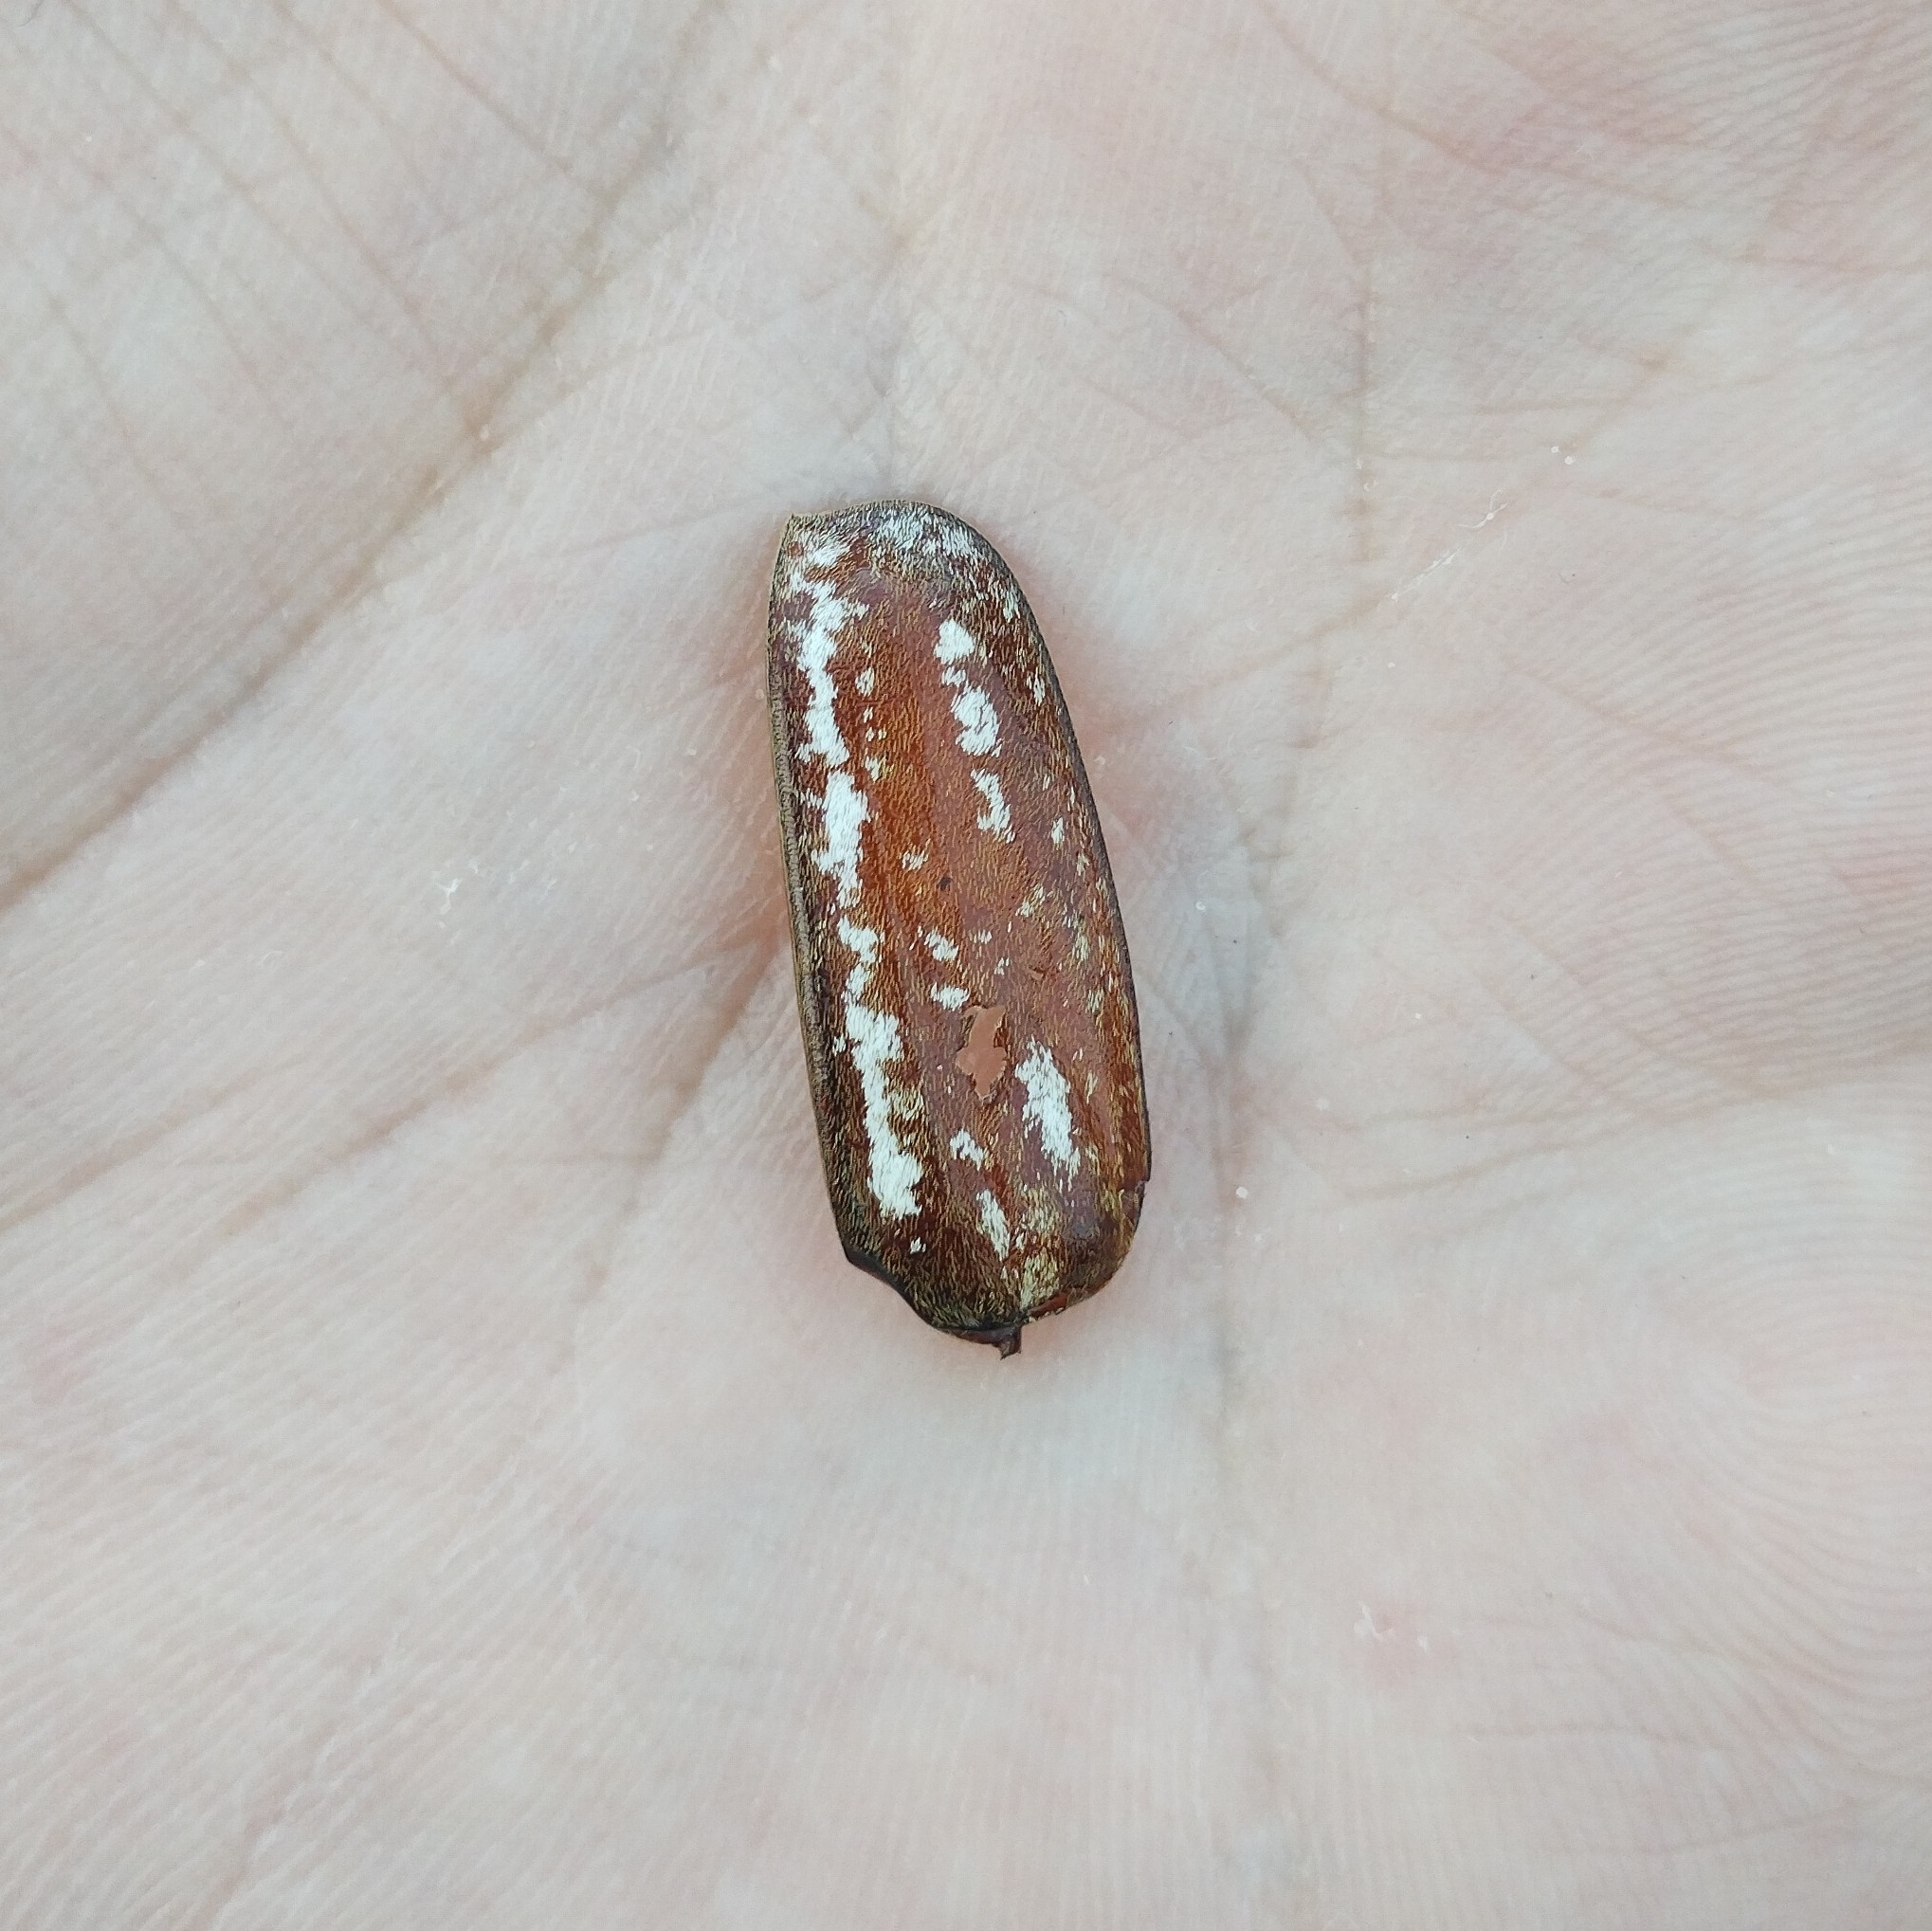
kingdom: Animalia
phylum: Arthropoda
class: Insecta
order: Coleoptera
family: Scarabaeidae
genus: Anoxia
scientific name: Anoxia orientalis
